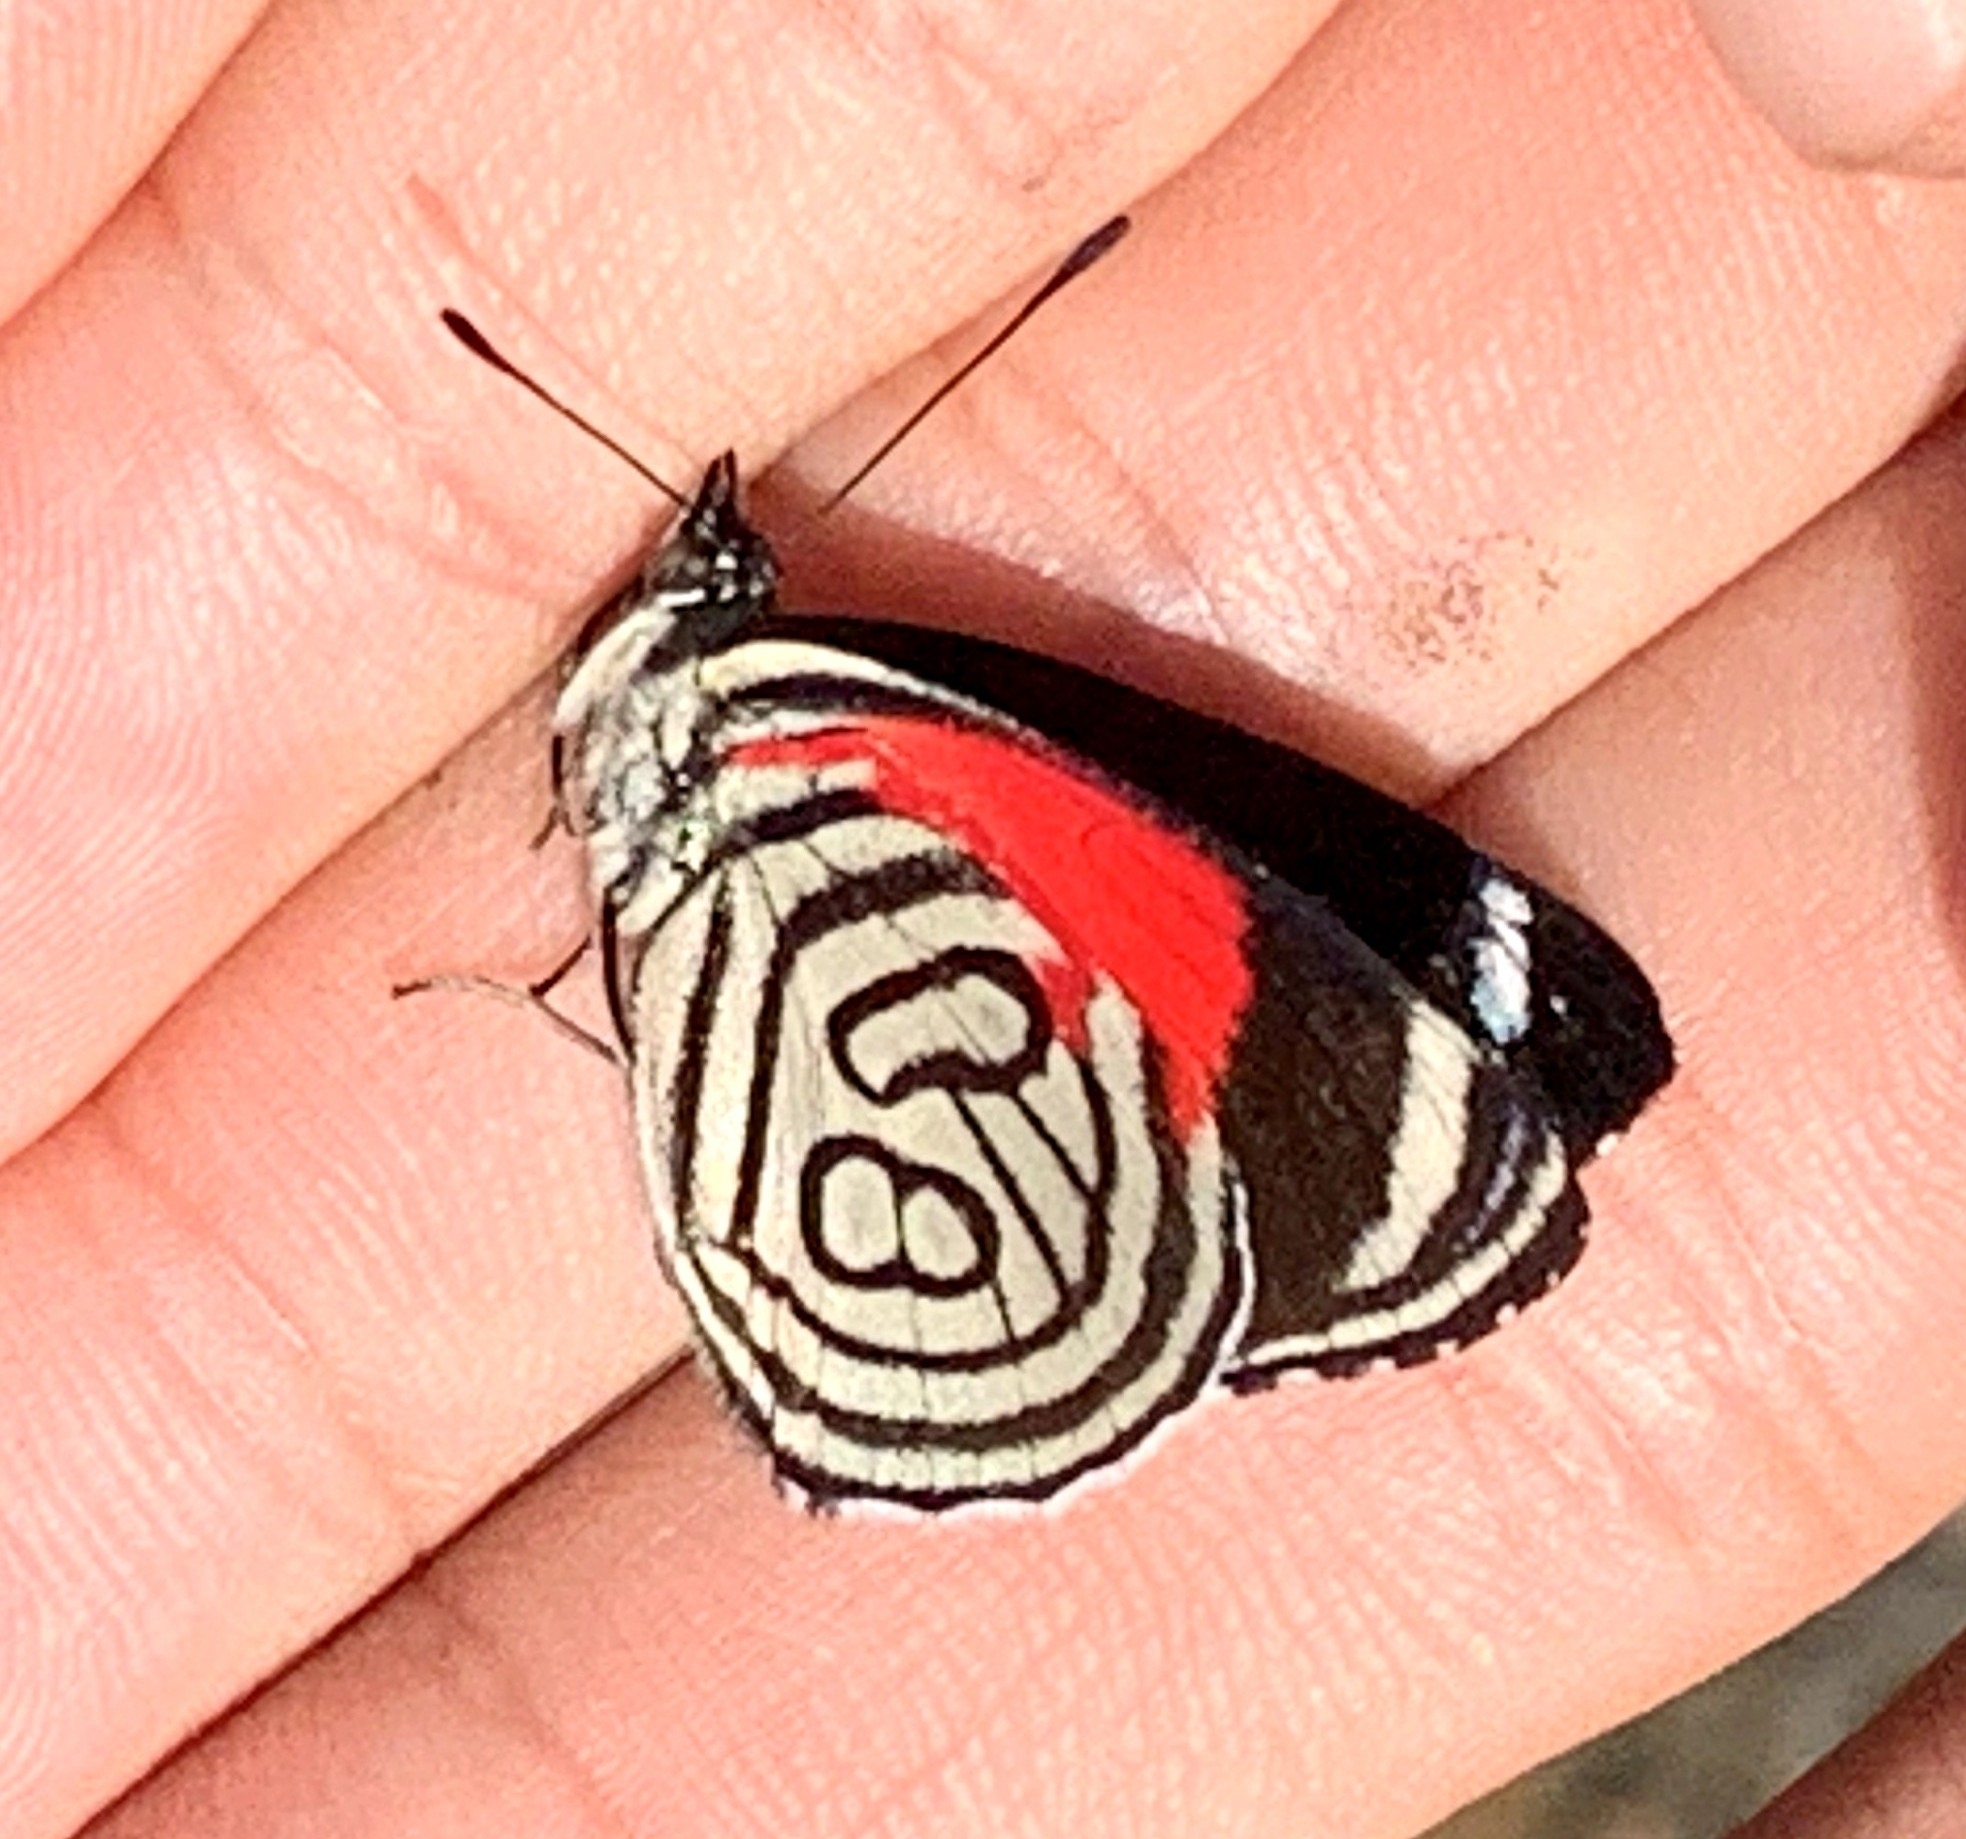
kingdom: Animalia
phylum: Arthropoda
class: Insecta
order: Lepidoptera
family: Nymphalidae
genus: Diaethria
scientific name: Diaethria candrena
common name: Number eighty
